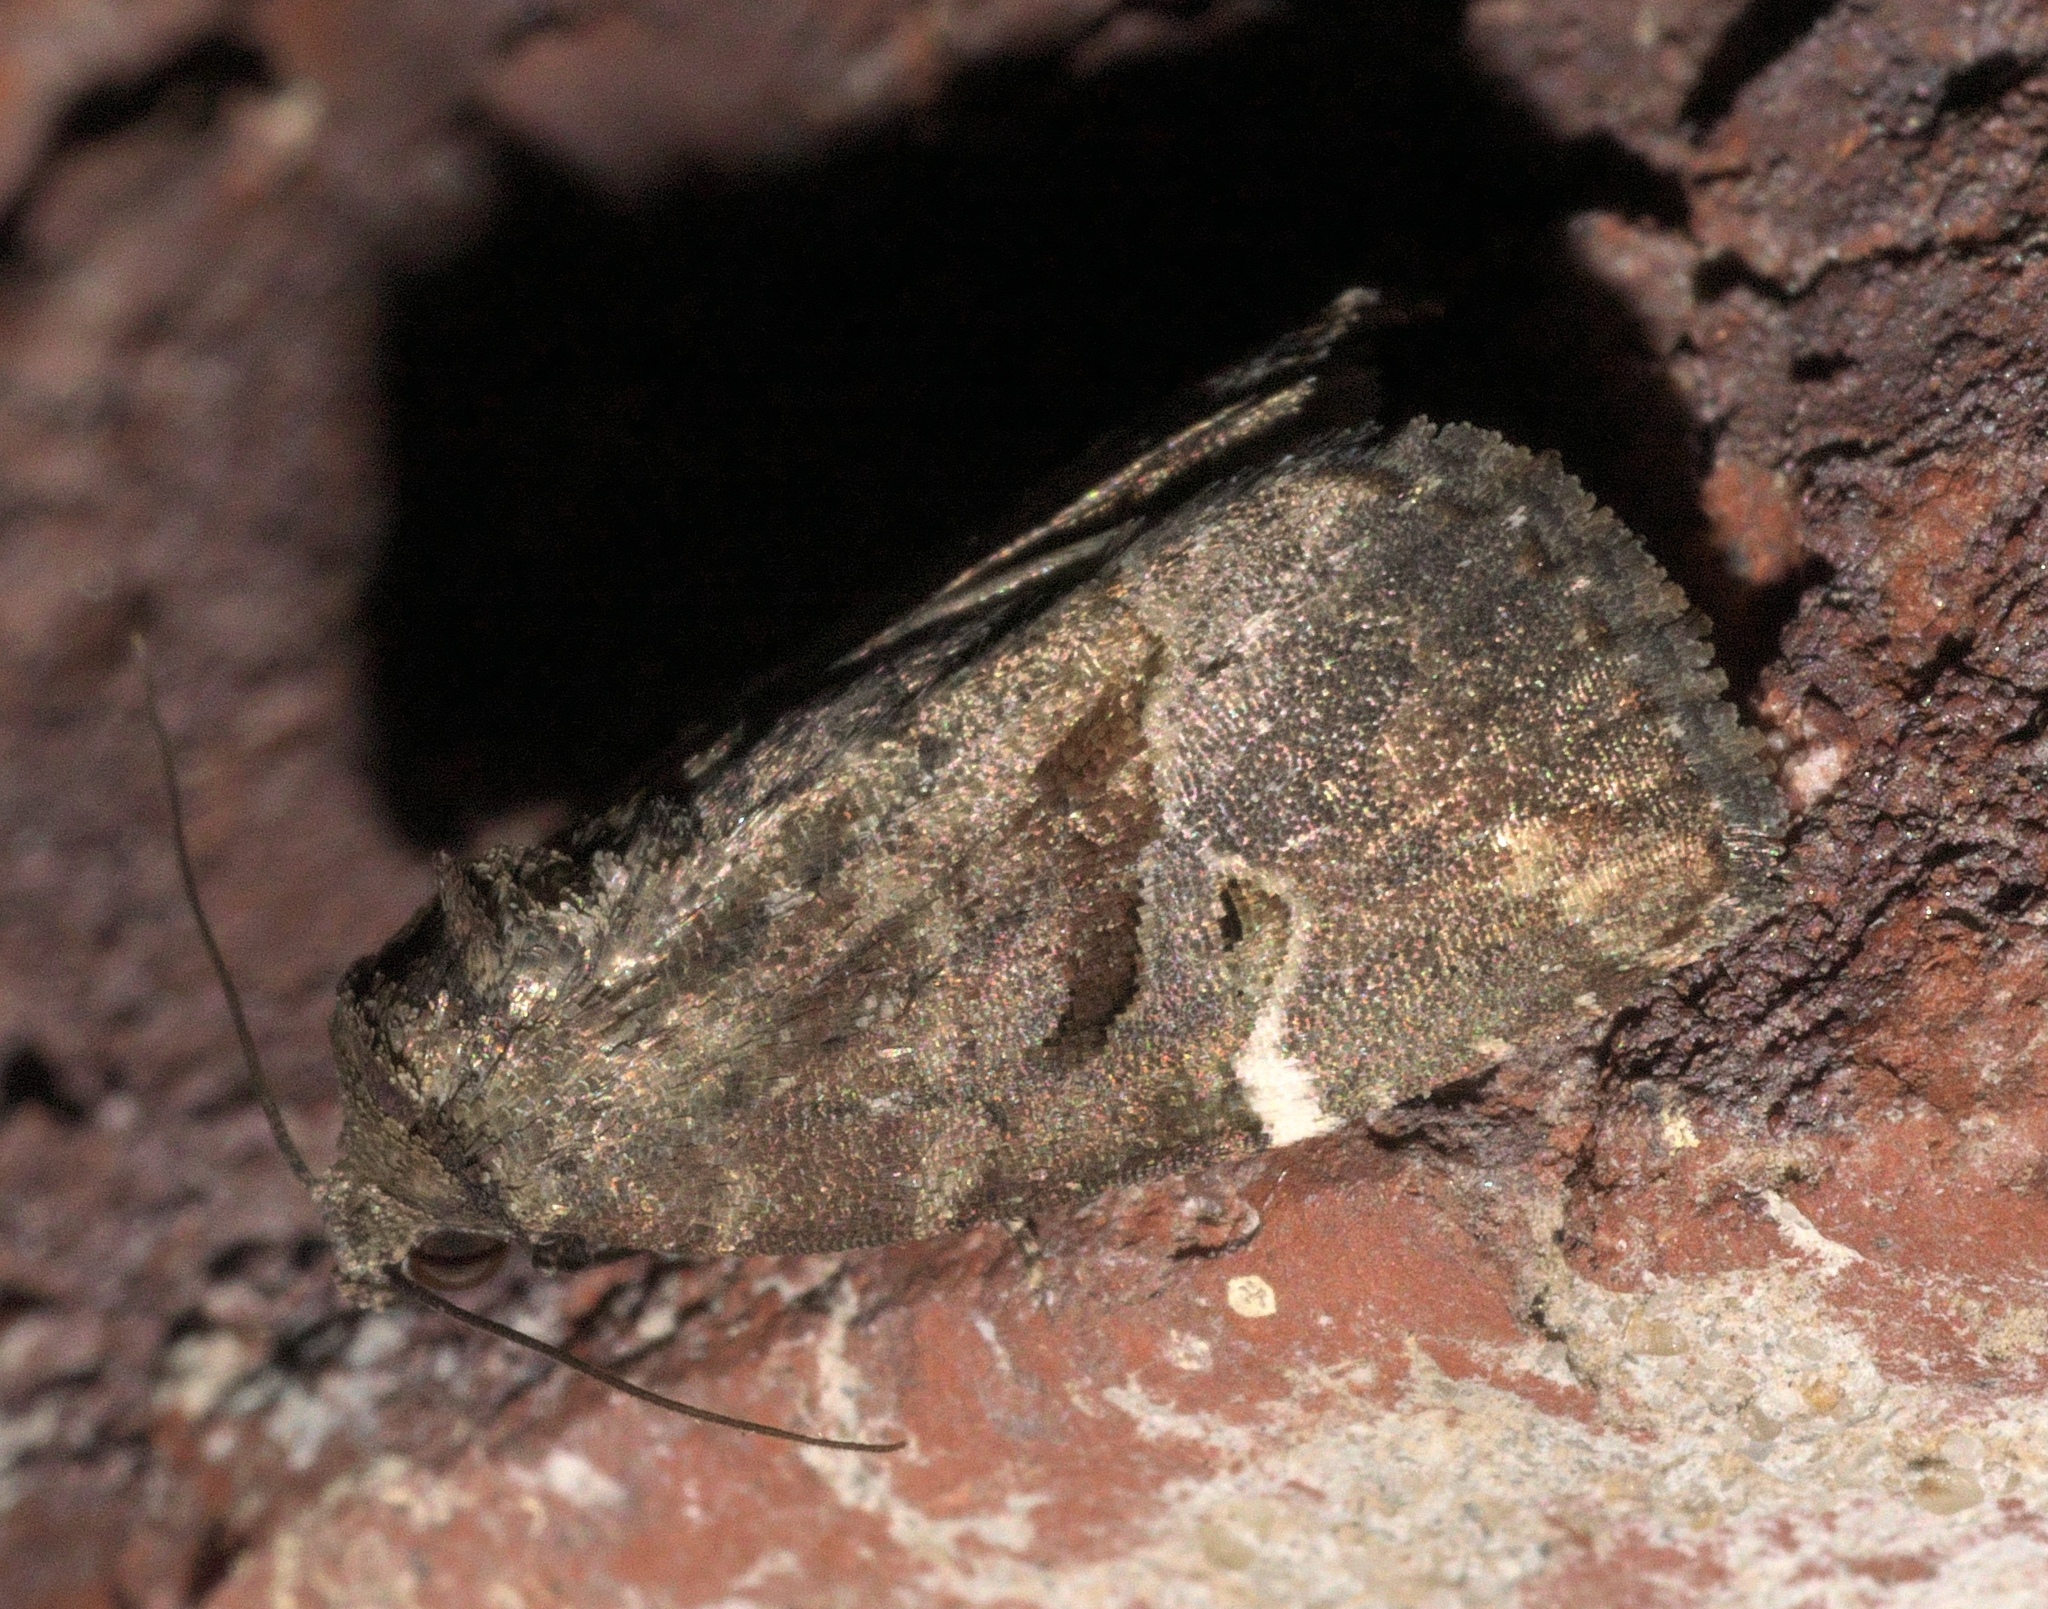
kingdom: Animalia
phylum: Arthropoda
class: Insecta
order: Lepidoptera
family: Noctuidae
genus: Elaphria
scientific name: Elaphria versicolor
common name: Fir harlequin
